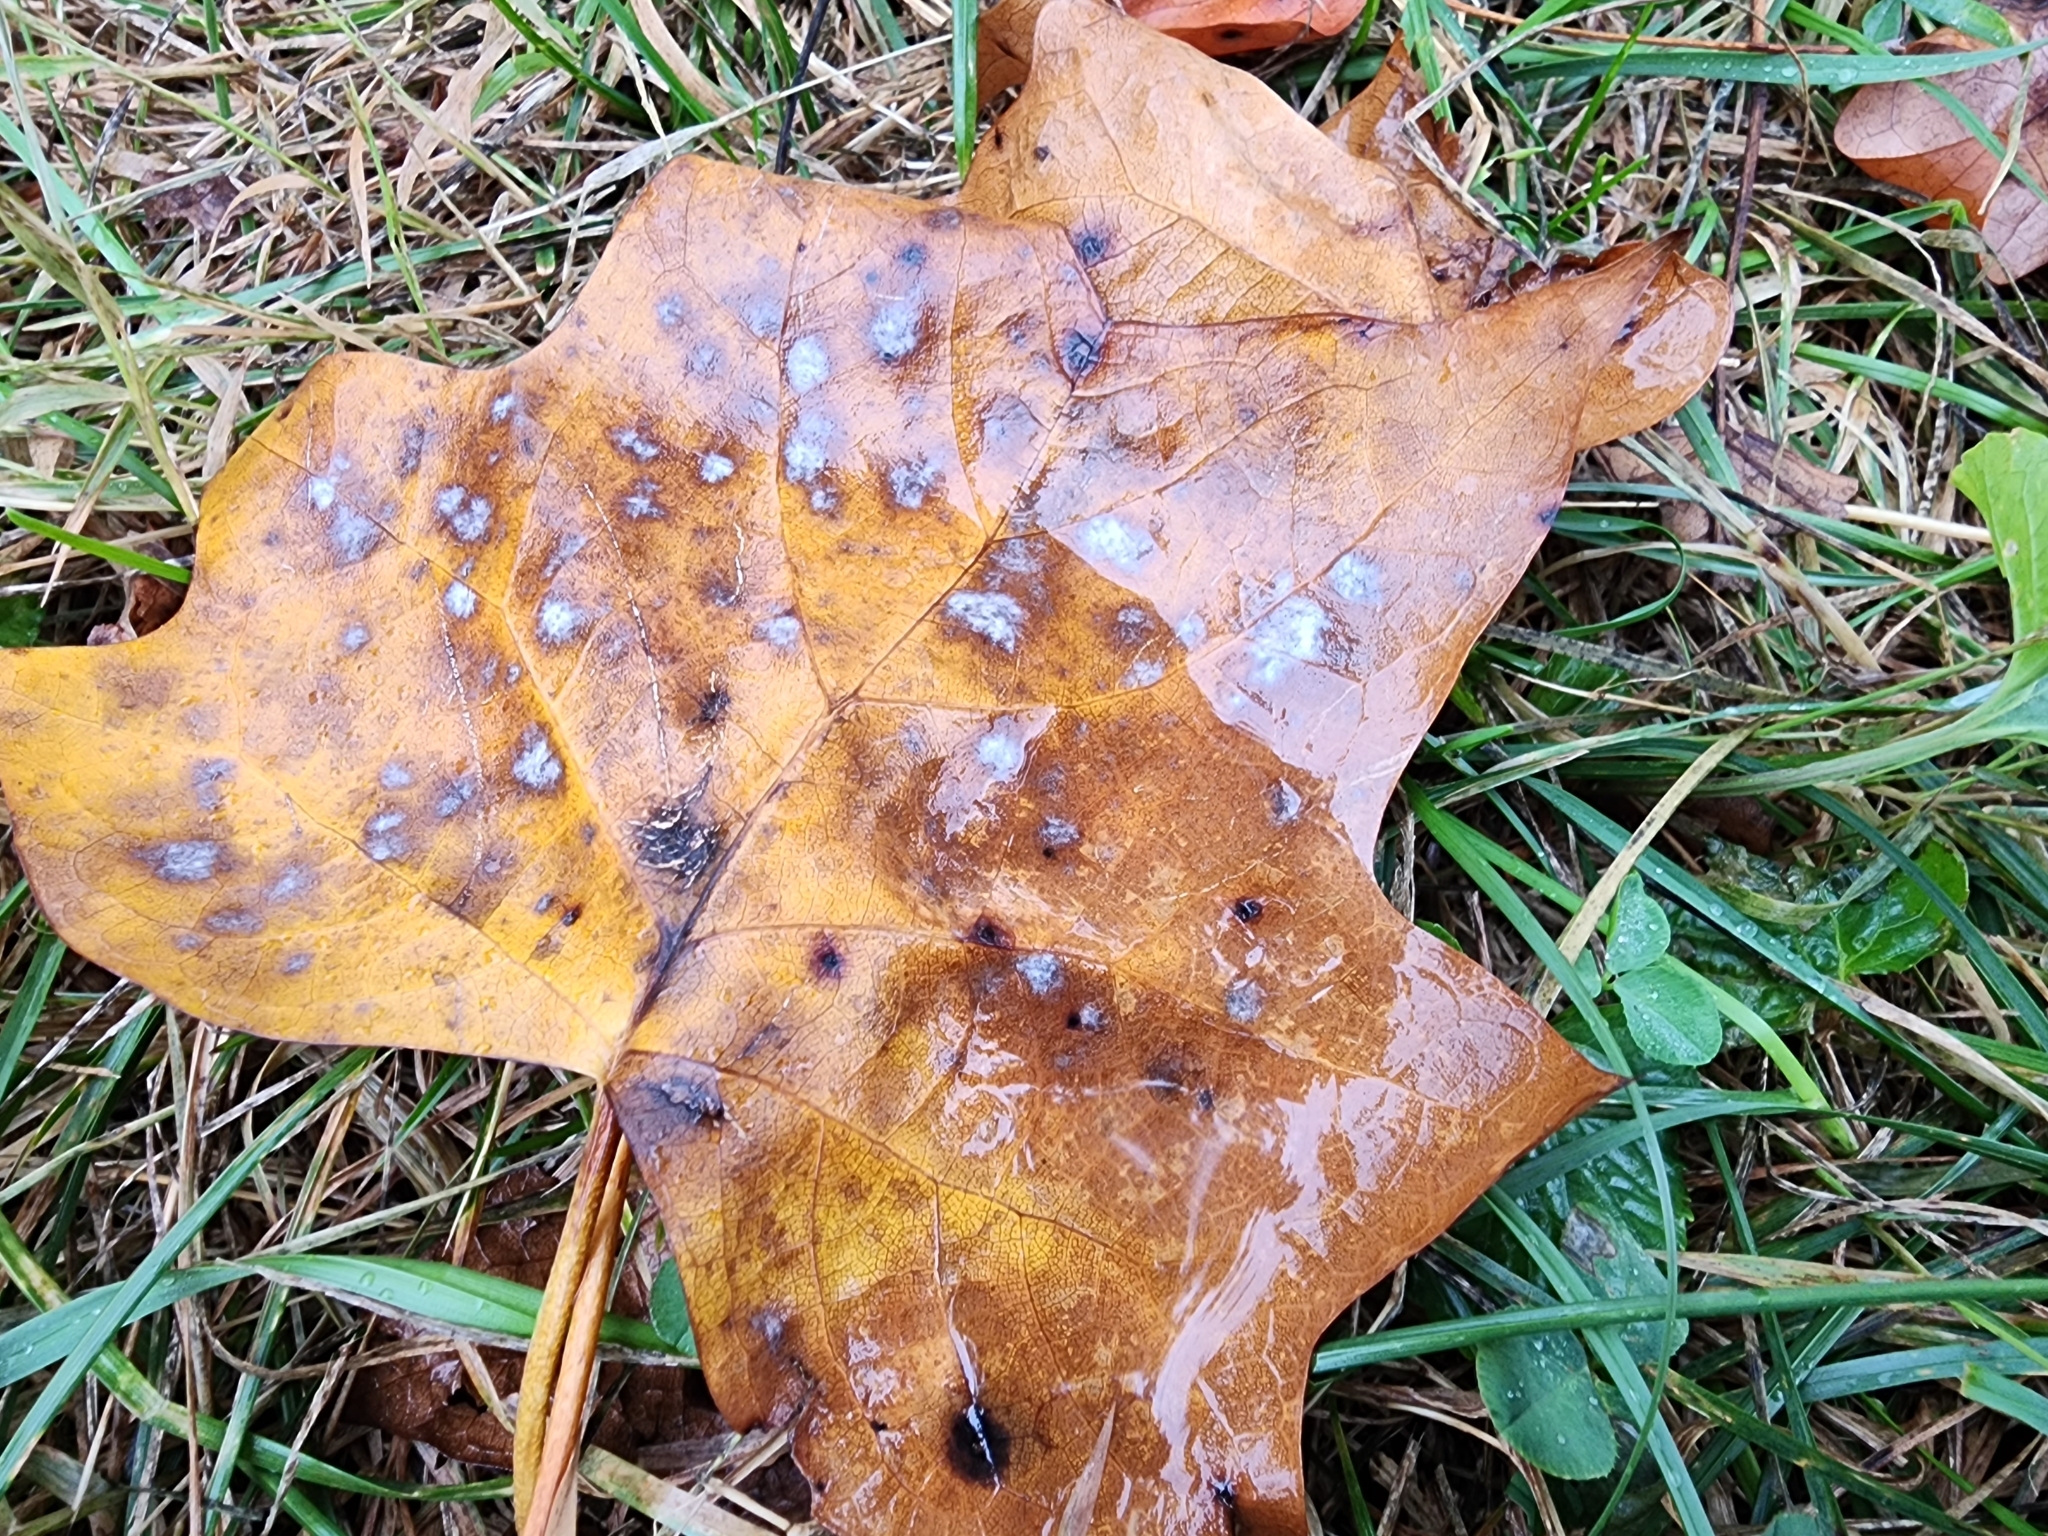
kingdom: Plantae
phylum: Tracheophyta
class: Magnoliopsida
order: Magnoliales
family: Magnoliaceae
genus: Liriodendron
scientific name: Liriodendron tulipifera
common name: Tulip tree
